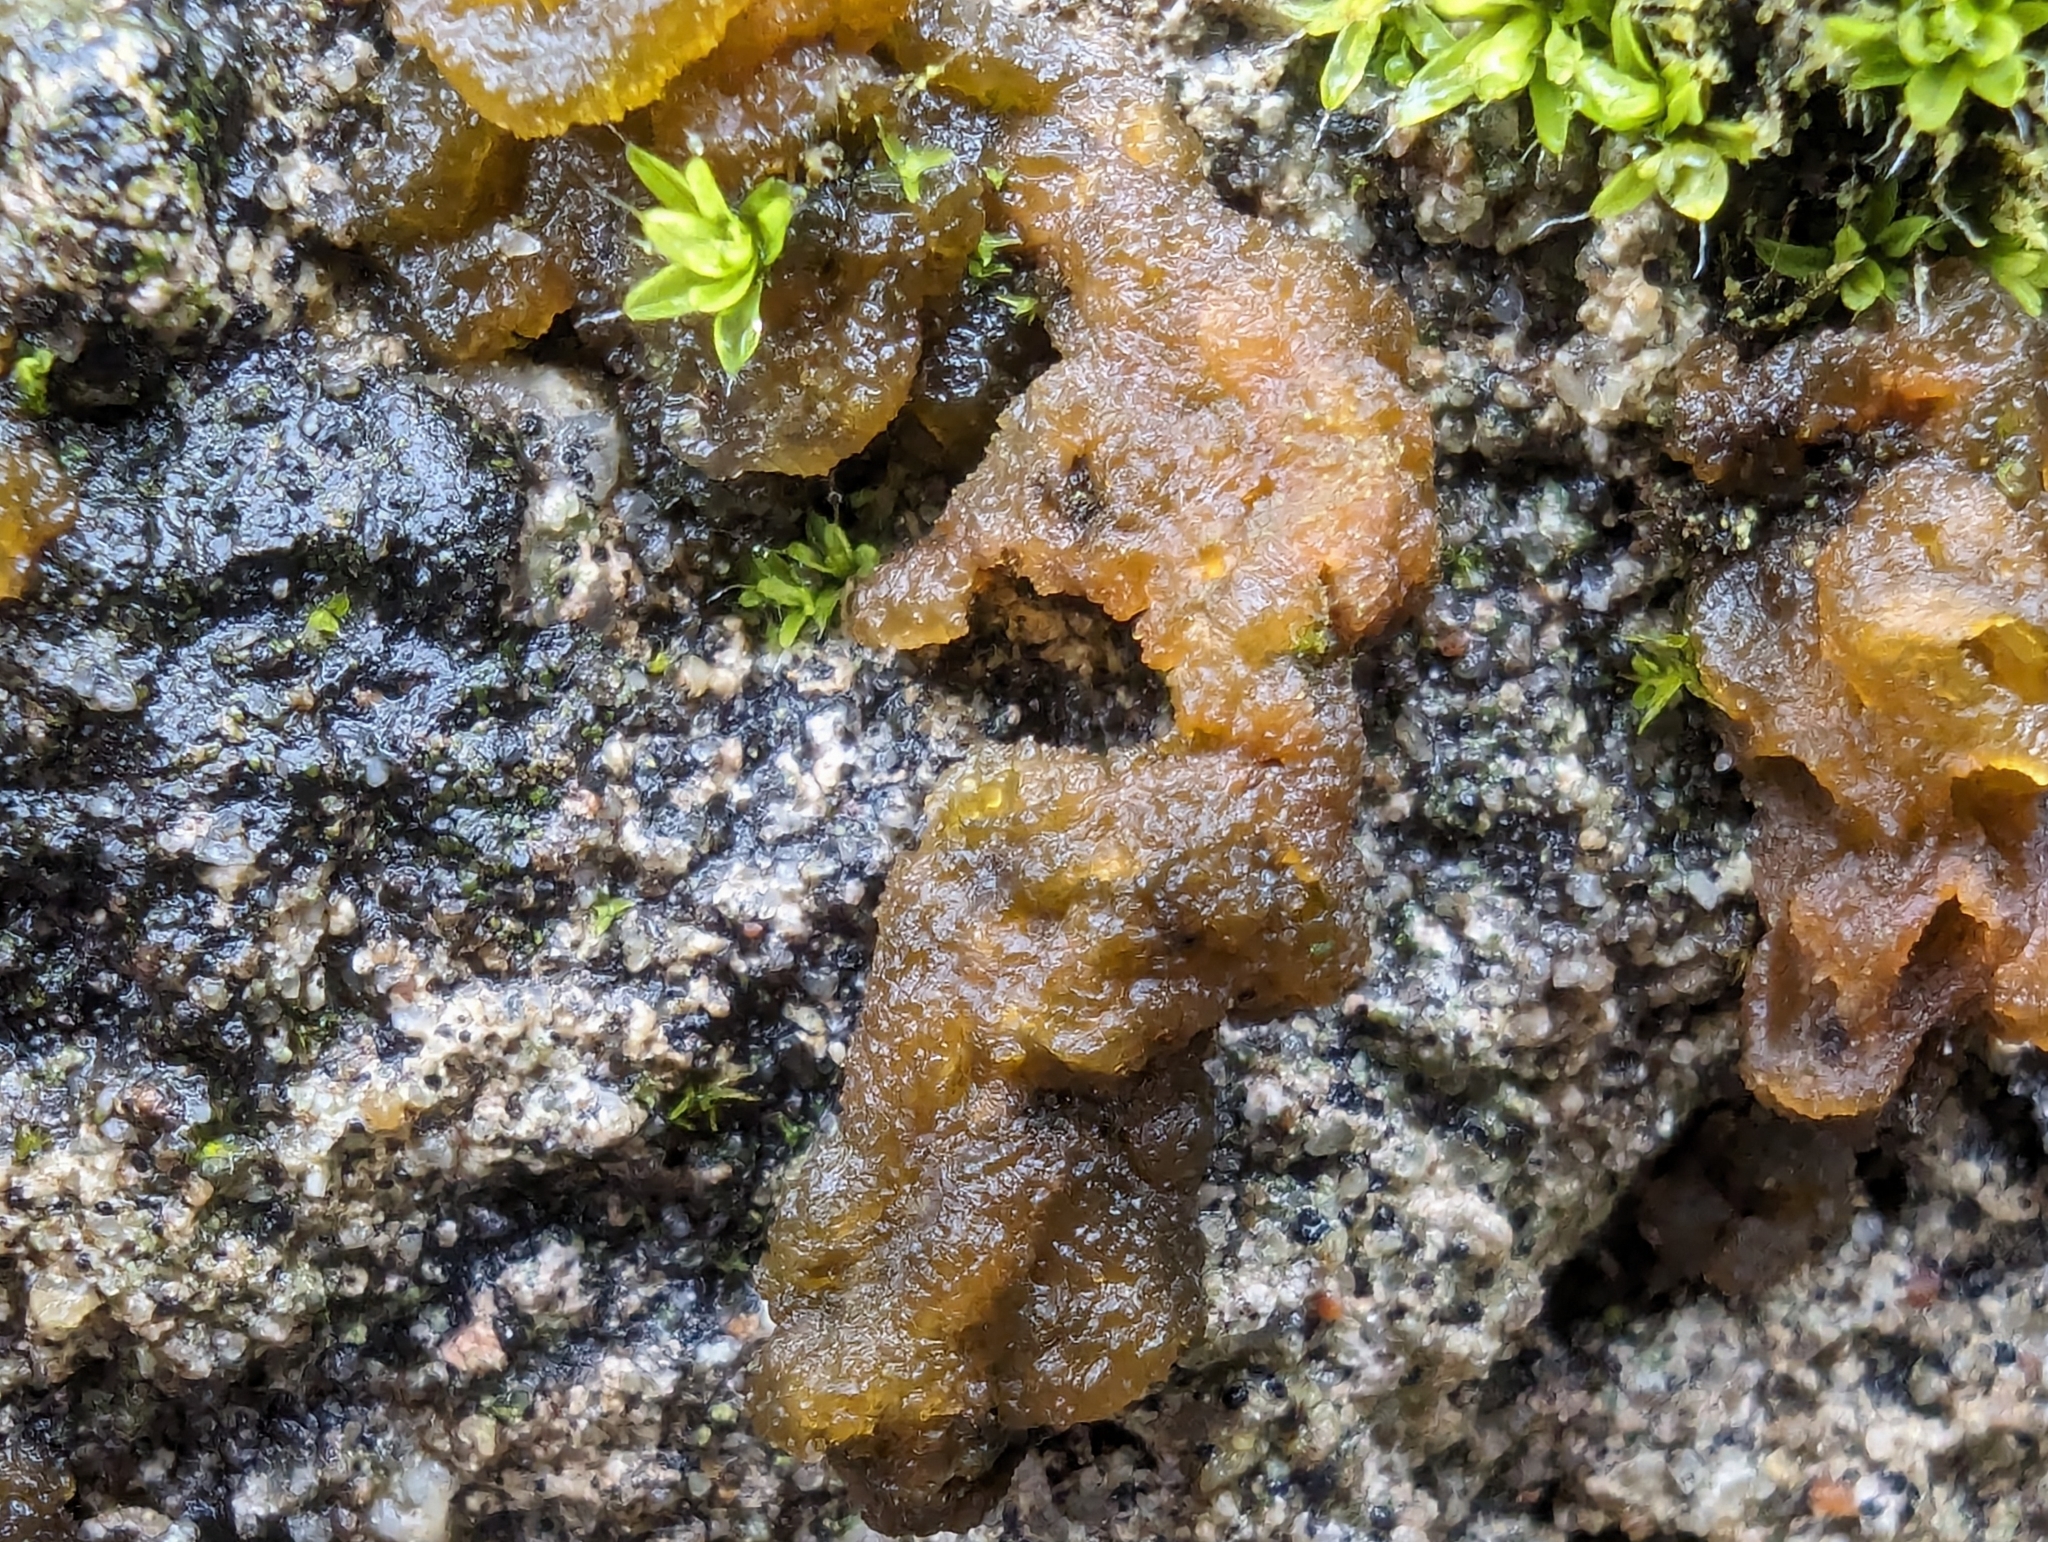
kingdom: Bacteria
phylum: Cyanobacteria
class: Cyanobacteriia
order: Cyanobacteriales
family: Nostocaceae
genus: Nostoc
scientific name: Nostoc commune
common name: Star jelly
